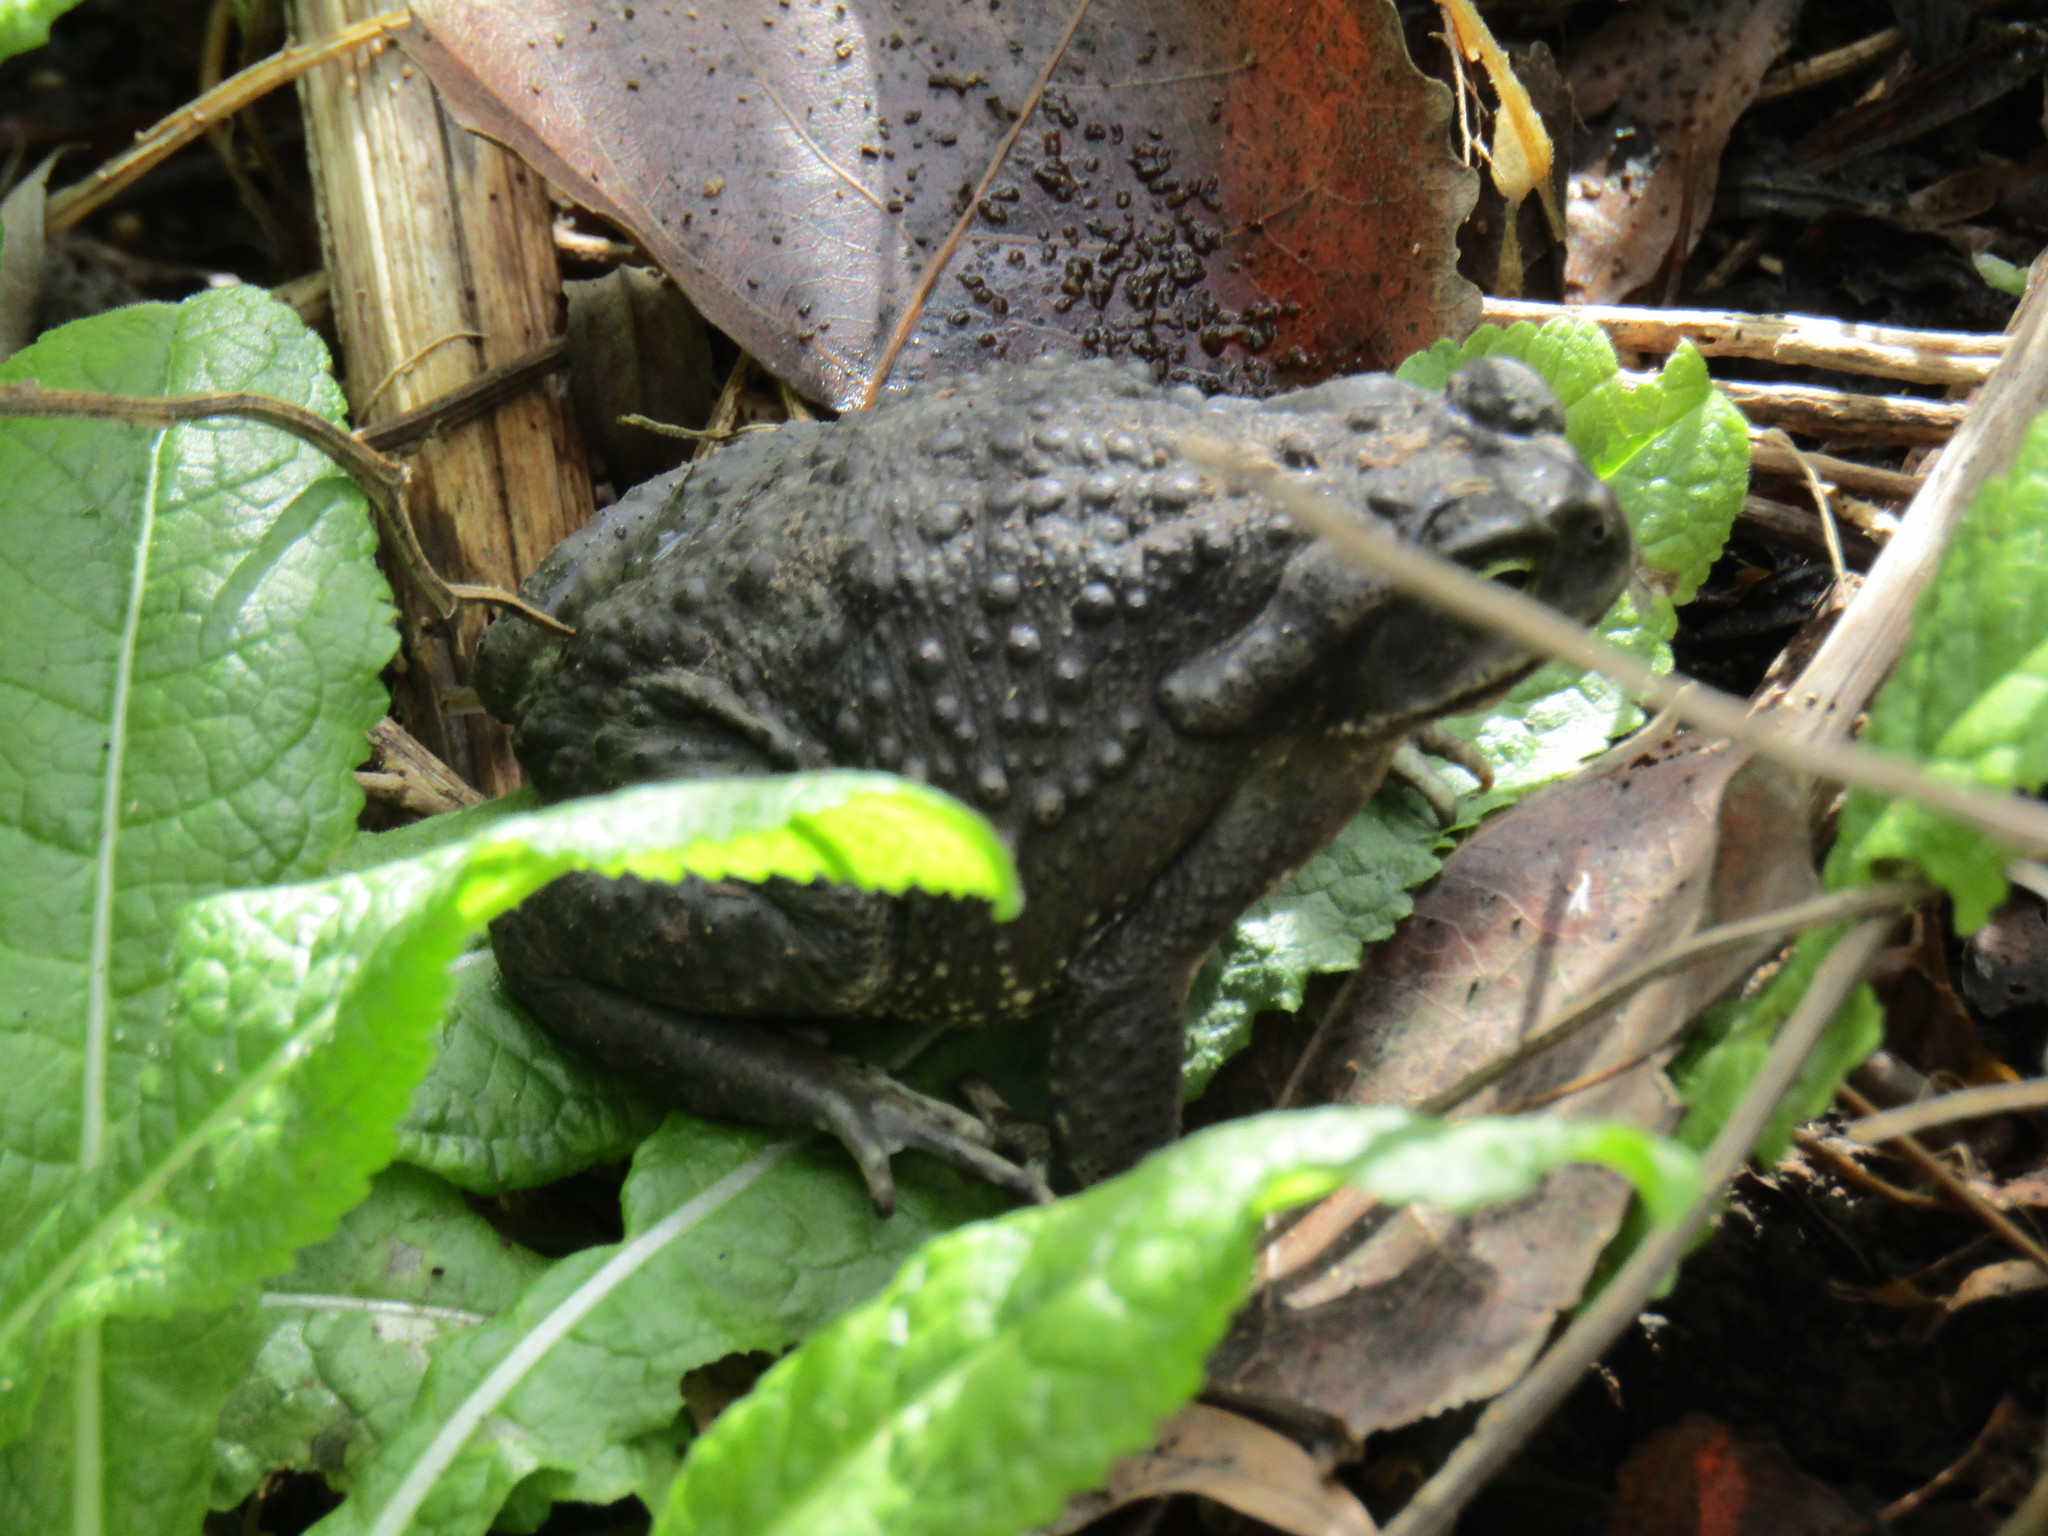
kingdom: Animalia
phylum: Chordata
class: Amphibia
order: Anura
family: Bufonidae
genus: Rhinella
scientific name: Rhinella arenarum
